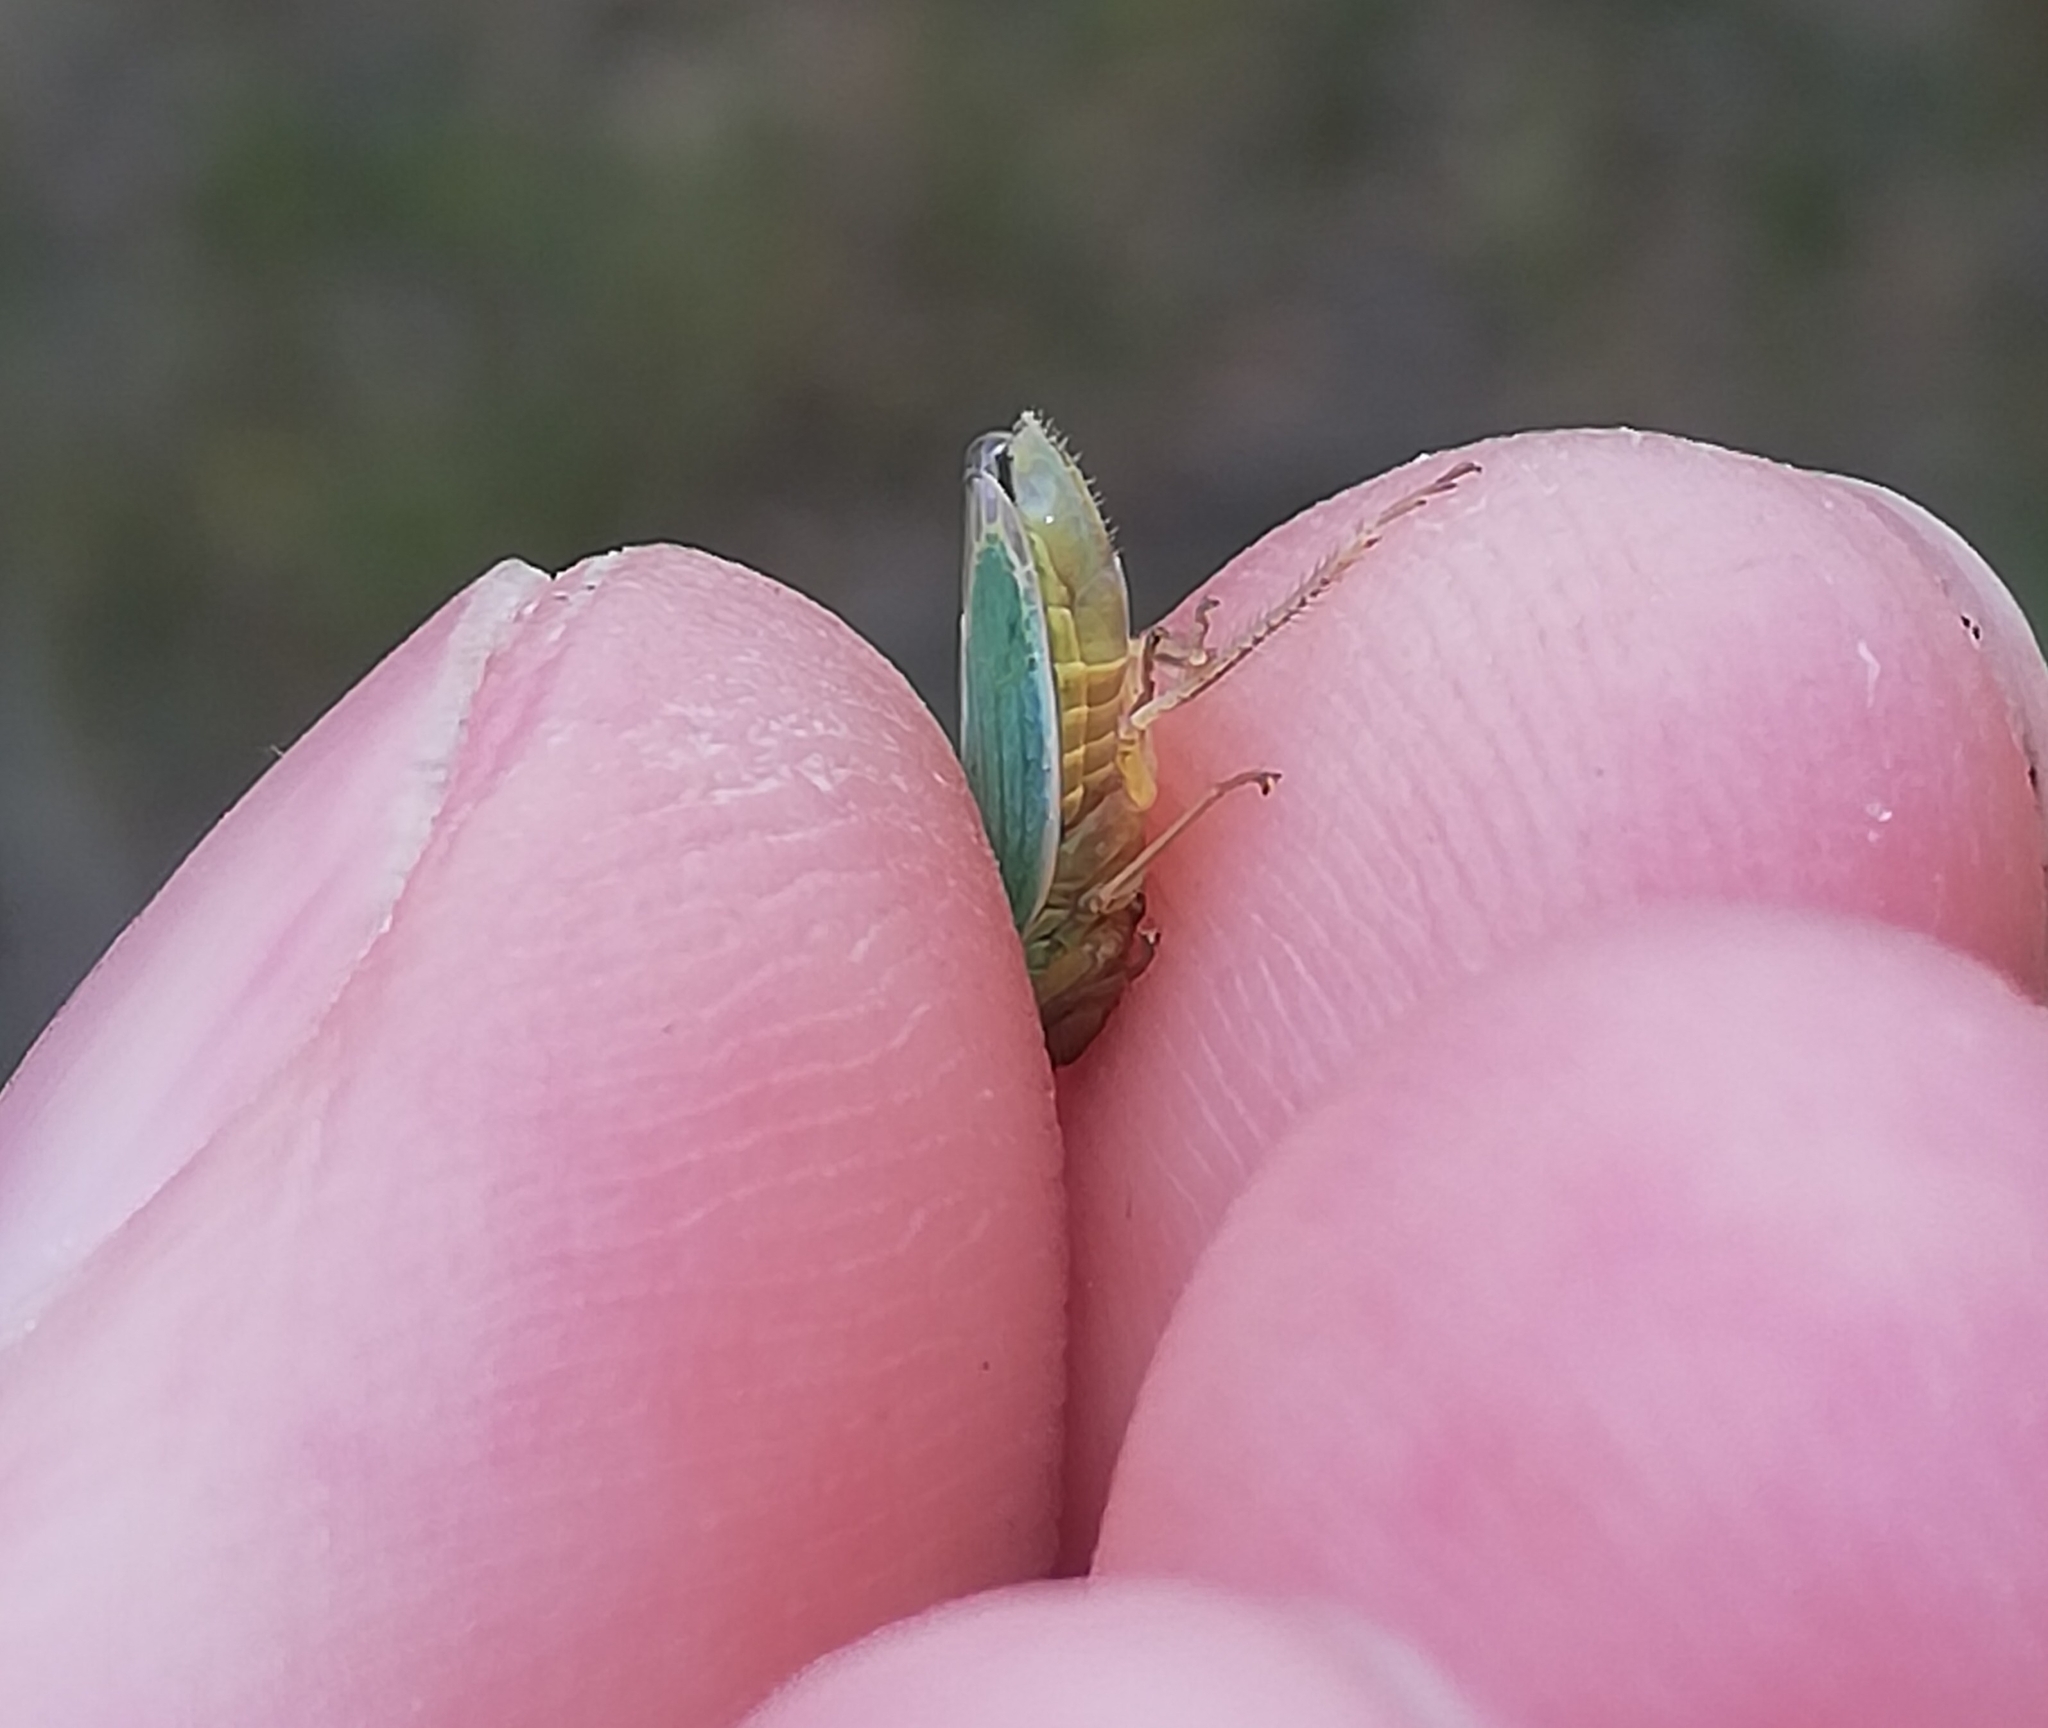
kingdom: Animalia
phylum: Arthropoda
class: Insecta
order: Hemiptera
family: Cicadellidae
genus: Cicadella
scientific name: Cicadella viridis
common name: Leafhopper
